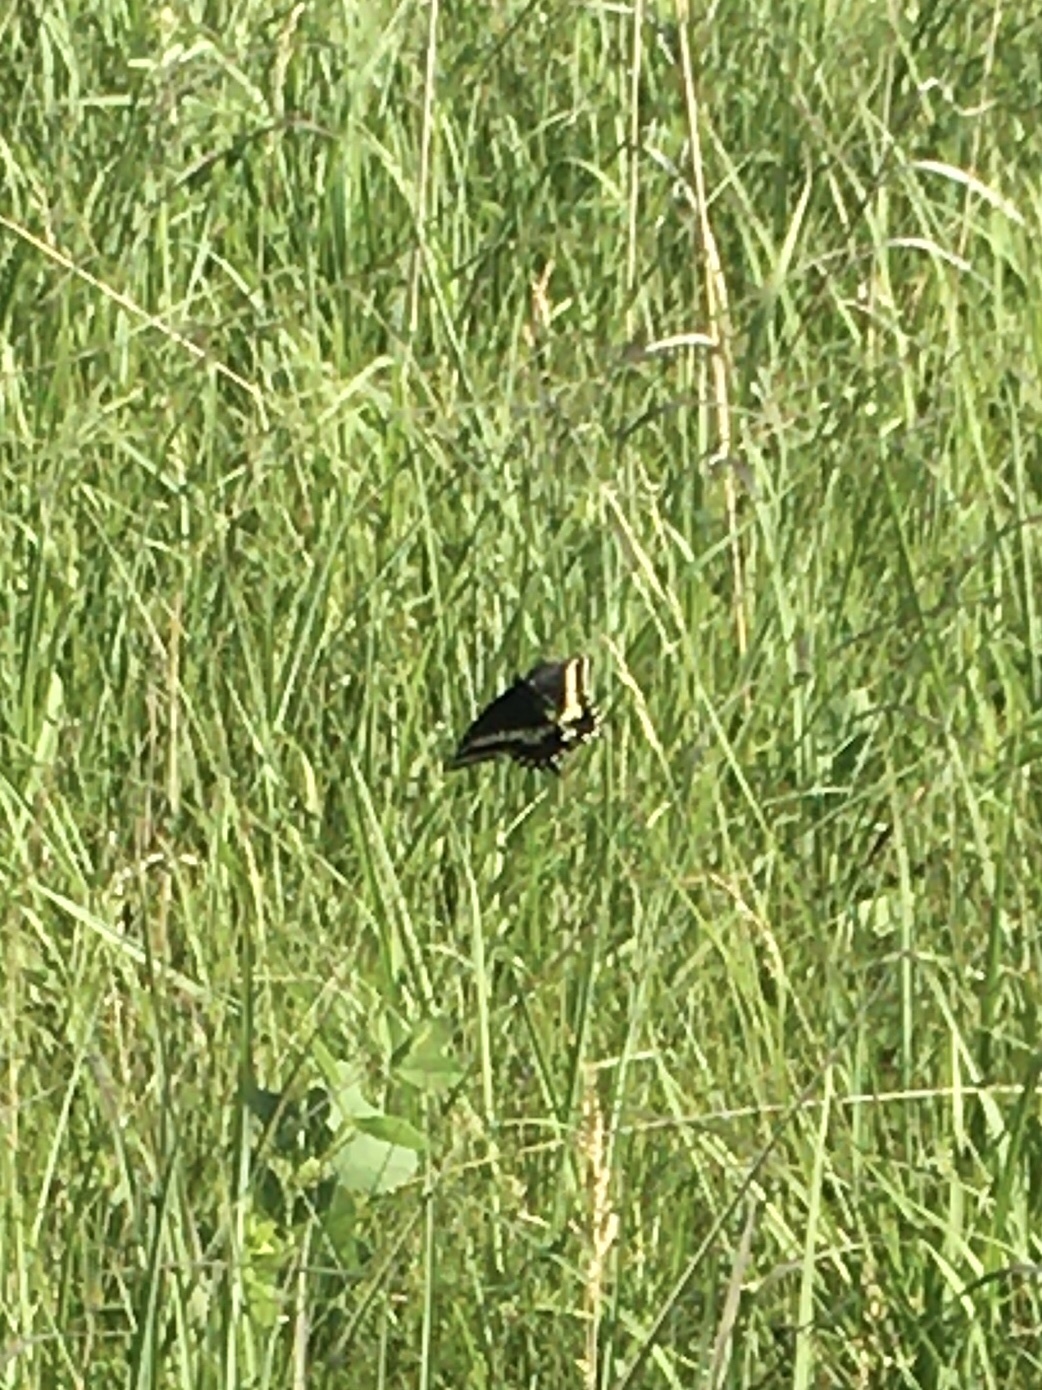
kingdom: Animalia
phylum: Arthropoda
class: Insecta
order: Lepidoptera
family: Papilionidae
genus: Papilio
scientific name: Papilio polyxenes
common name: Black swallowtail
